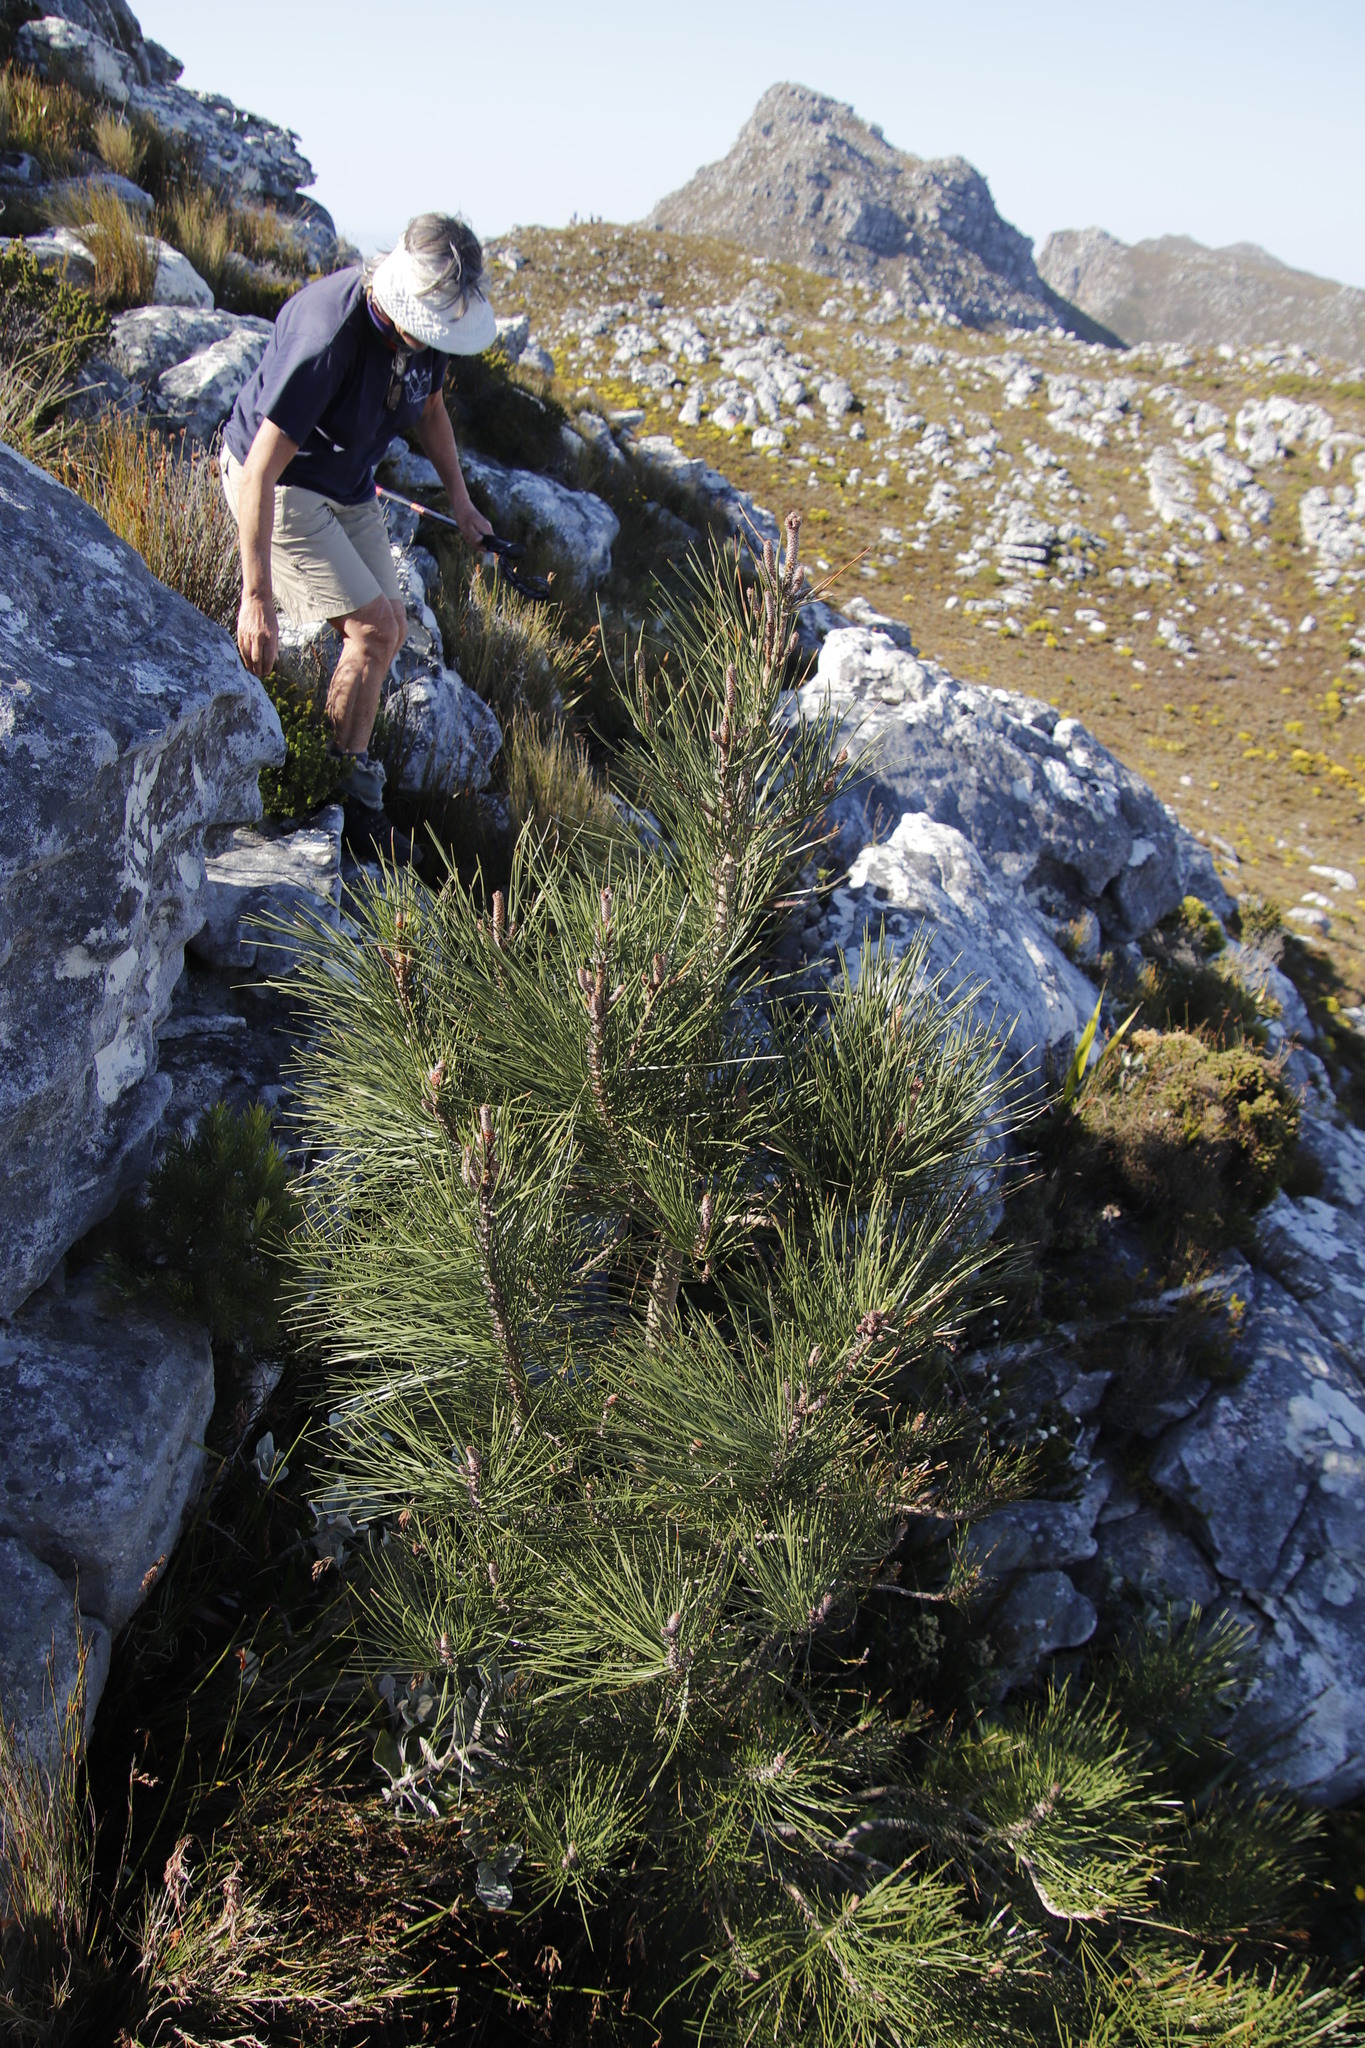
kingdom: Plantae
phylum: Tracheophyta
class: Pinopsida
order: Pinales
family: Pinaceae
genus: Pinus
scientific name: Pinus pinaster
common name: Maritime pine
